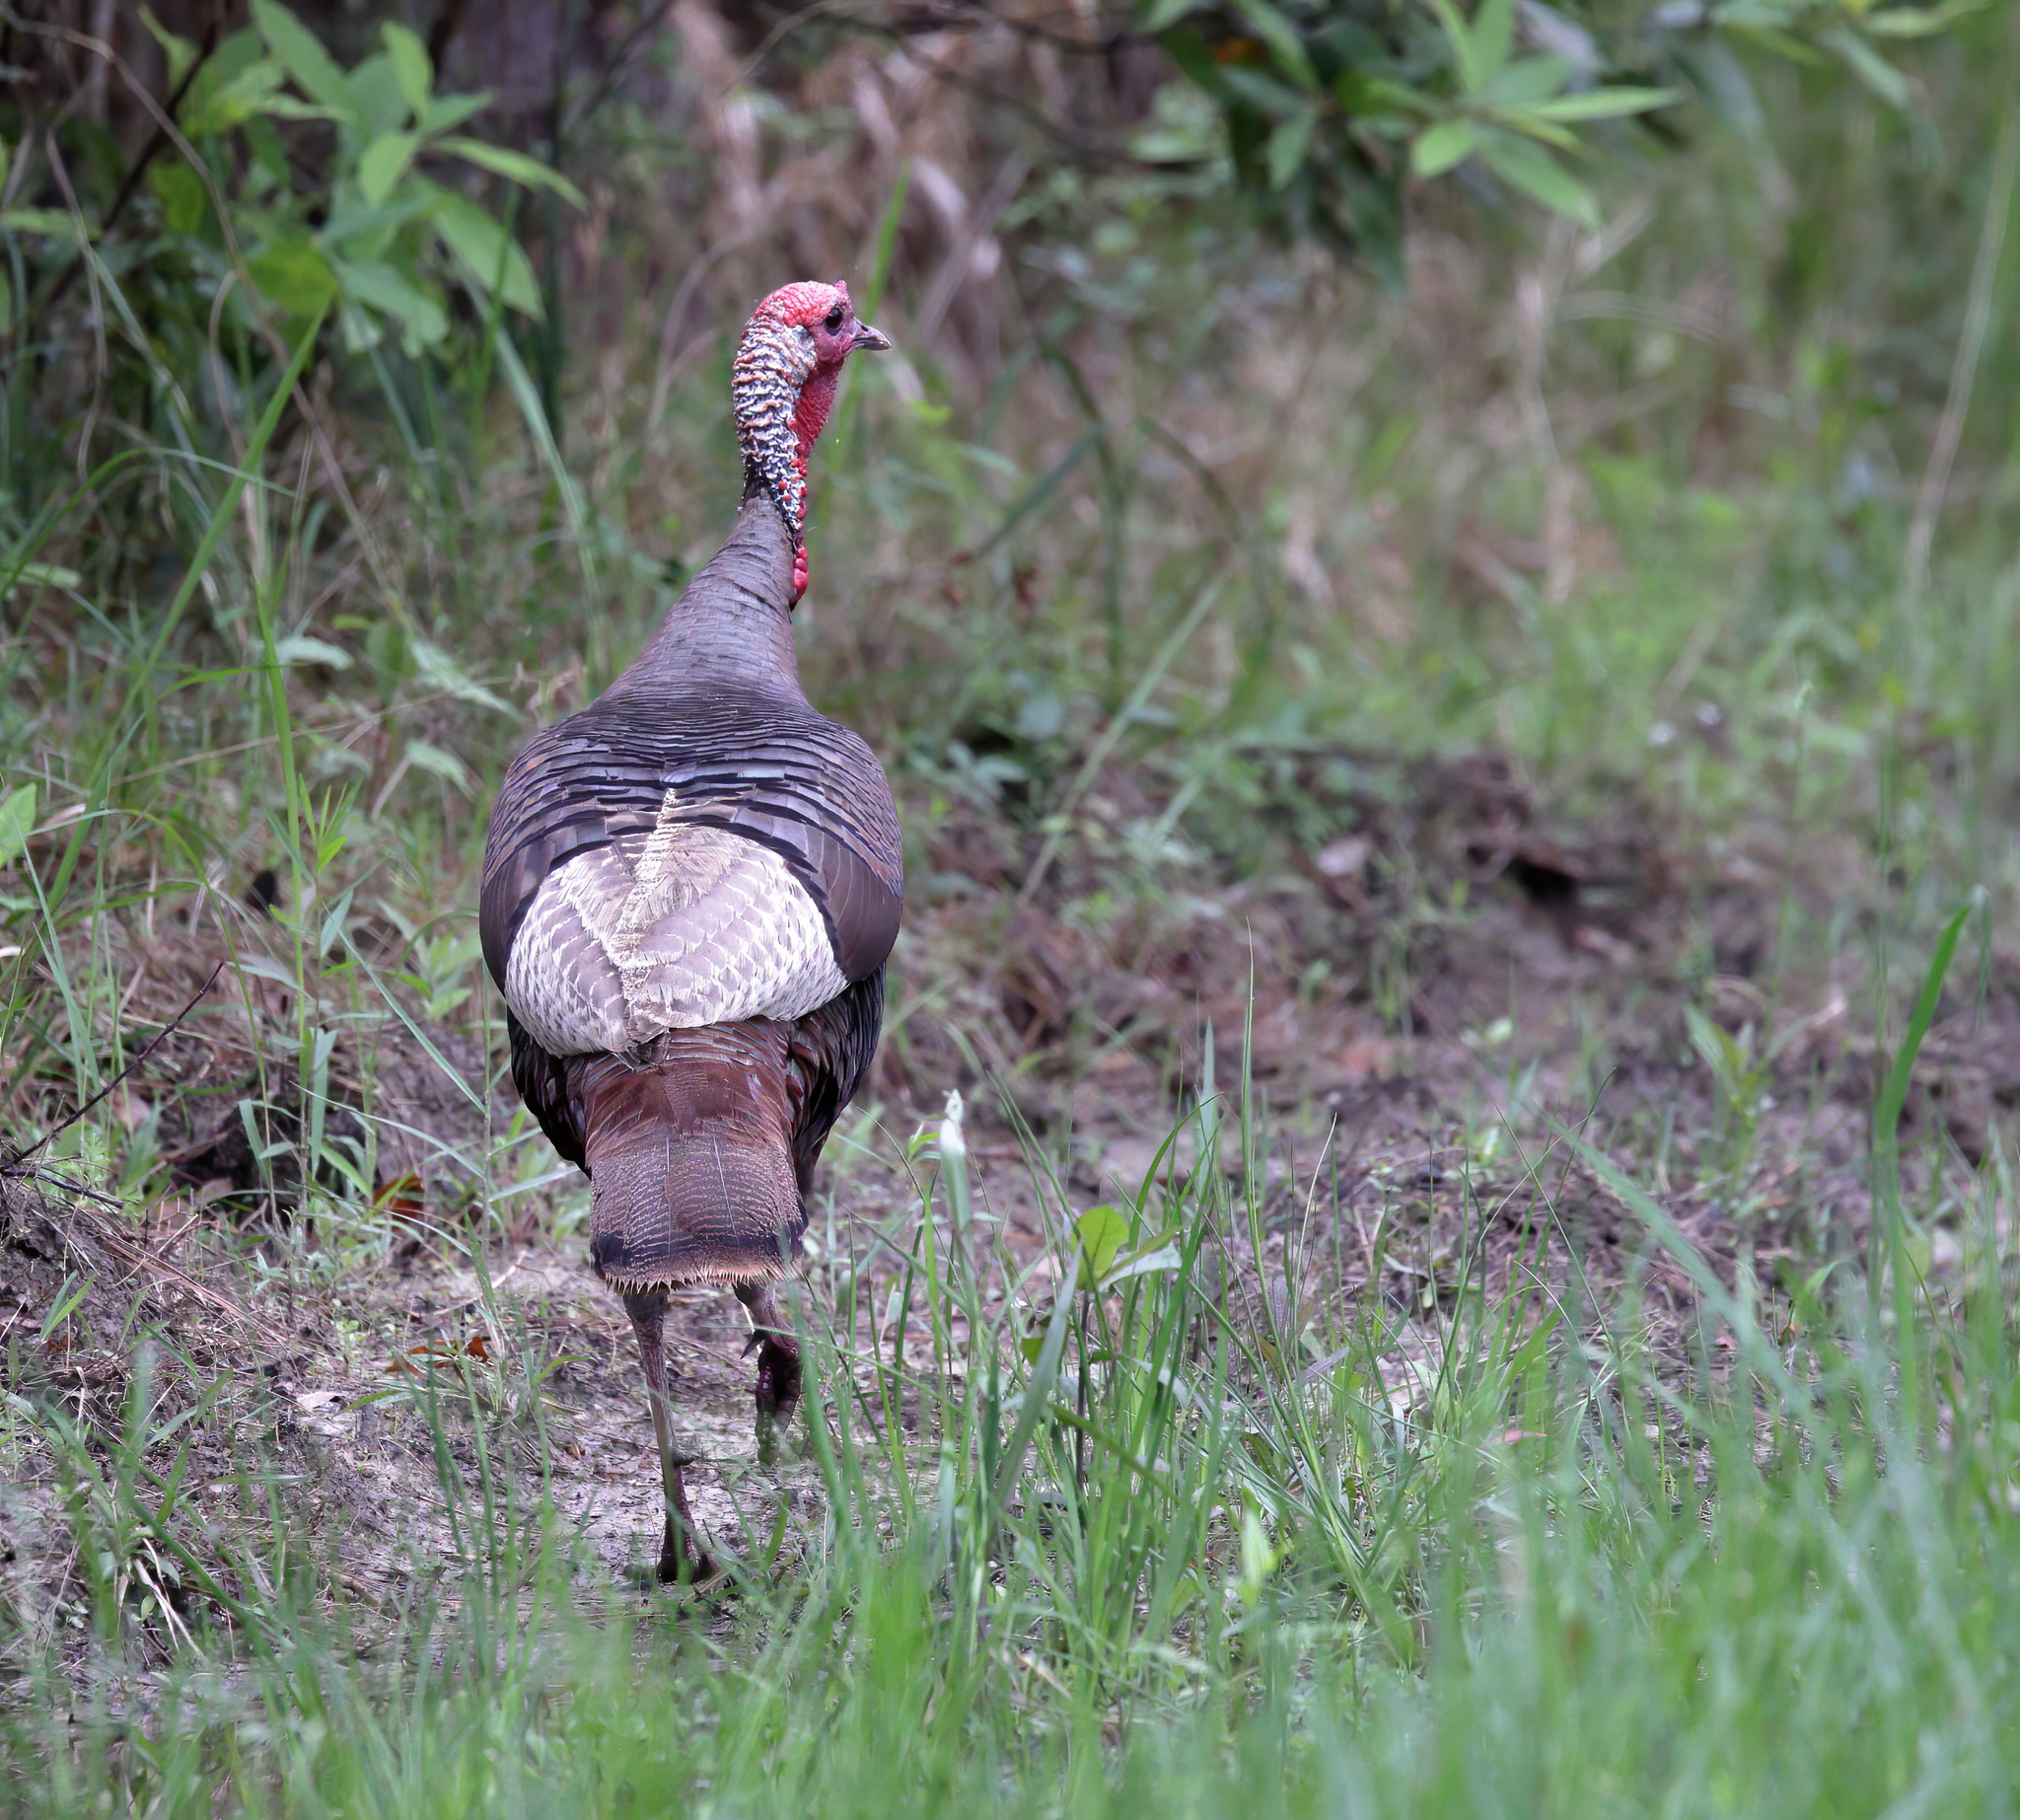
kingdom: Animalia
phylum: Chordata
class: Aves
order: Galliformes
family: Phasianidae
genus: Meleagris
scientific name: Meleagris gallopavo
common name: Wild turkey
